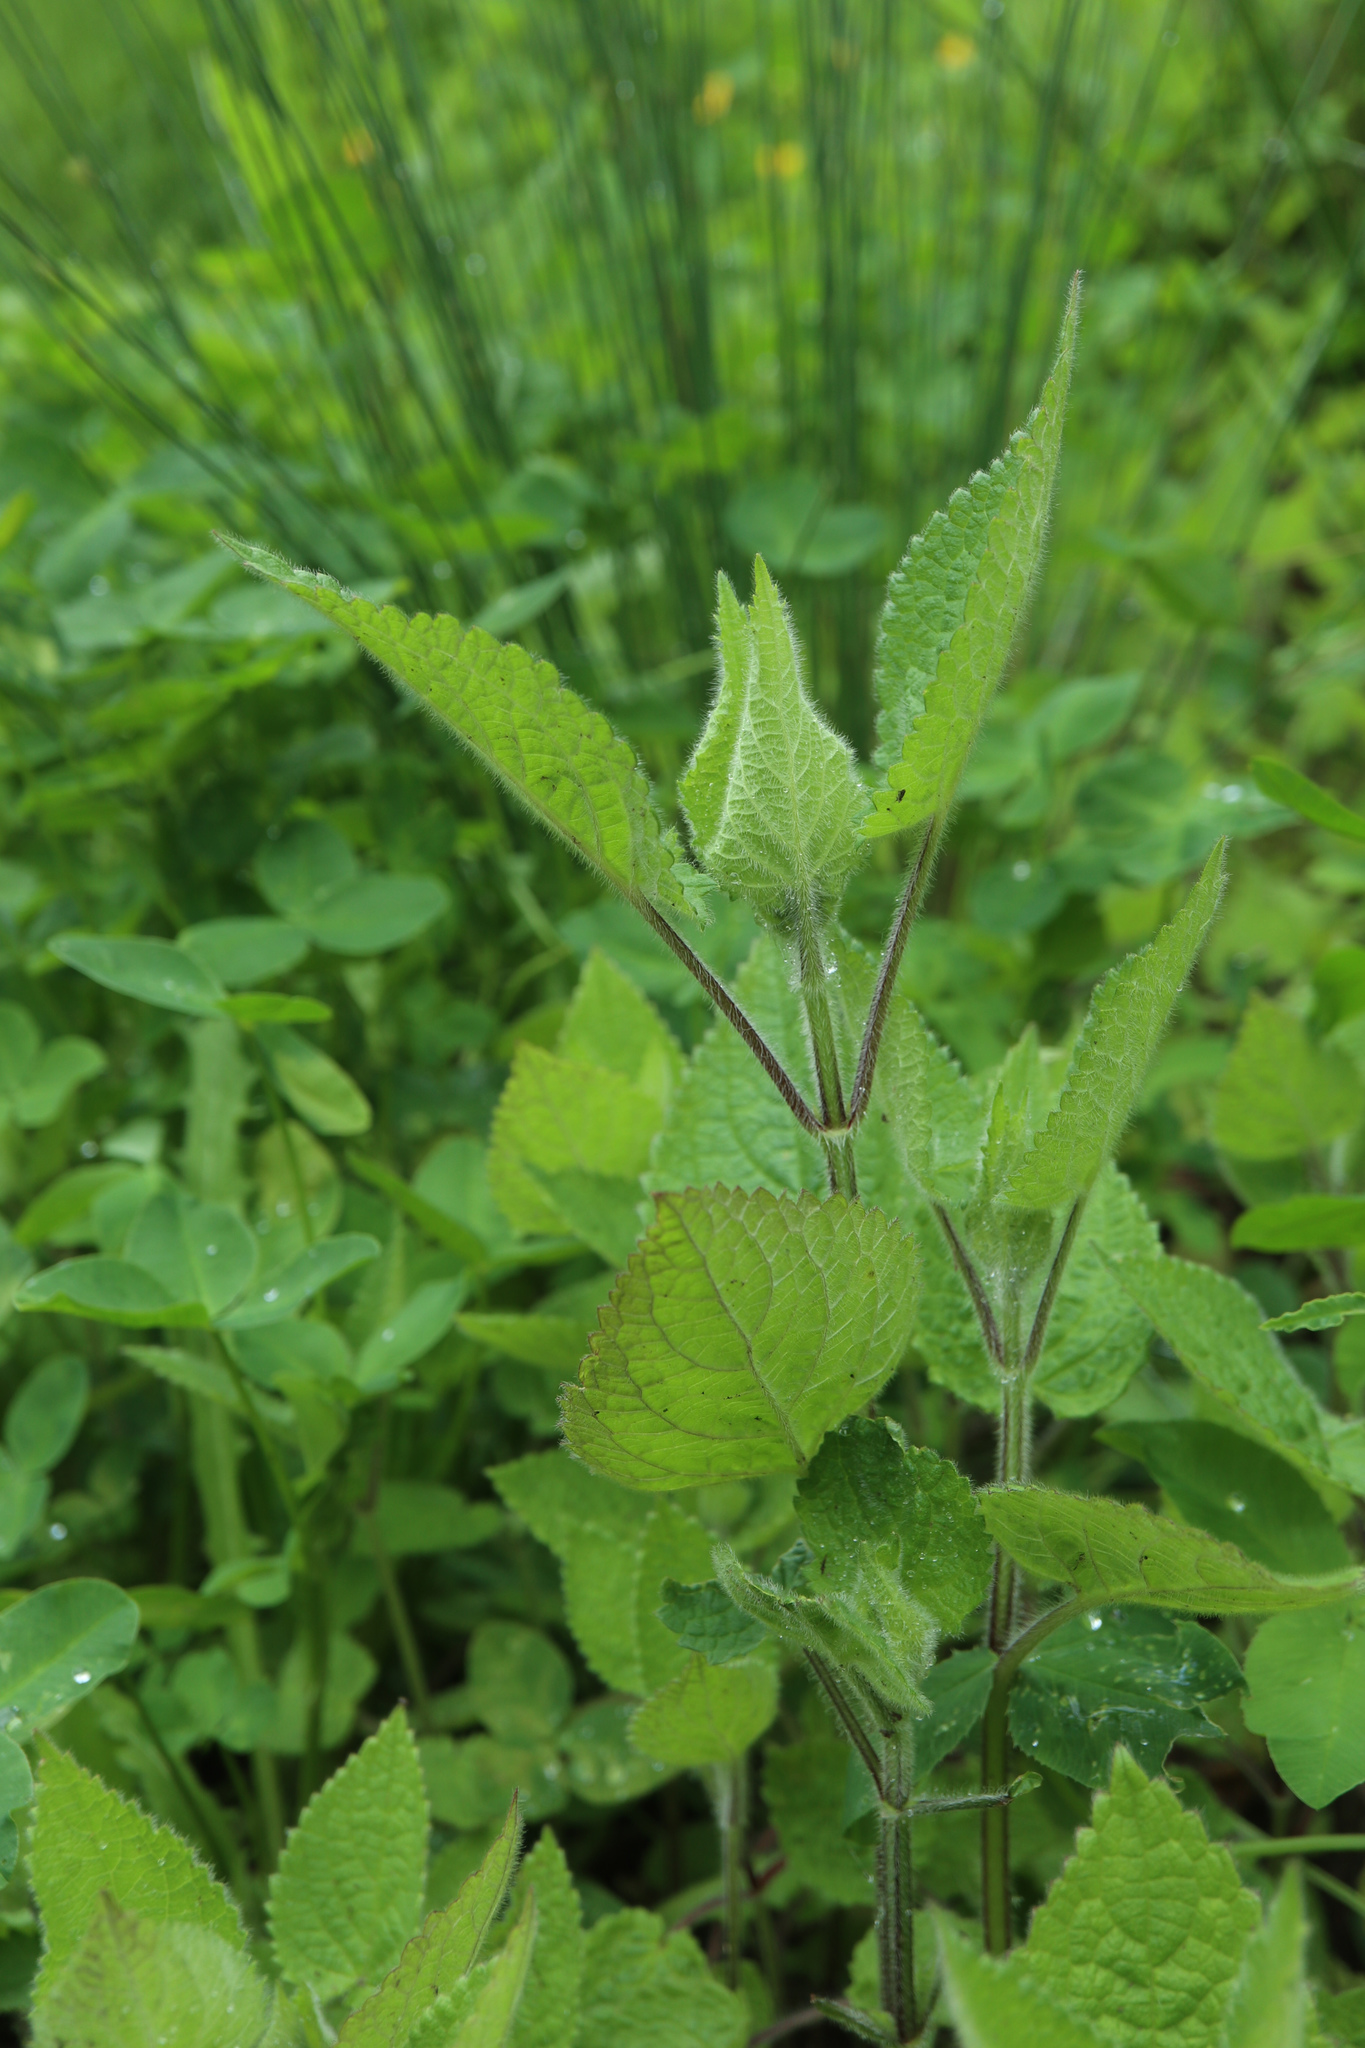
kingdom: Plantae
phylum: Tracheophyta
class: Magnoliopsida
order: Lamiales
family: Lamiaceae
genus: Stachys
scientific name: Stachys sylvatica
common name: Hedge woundwort
